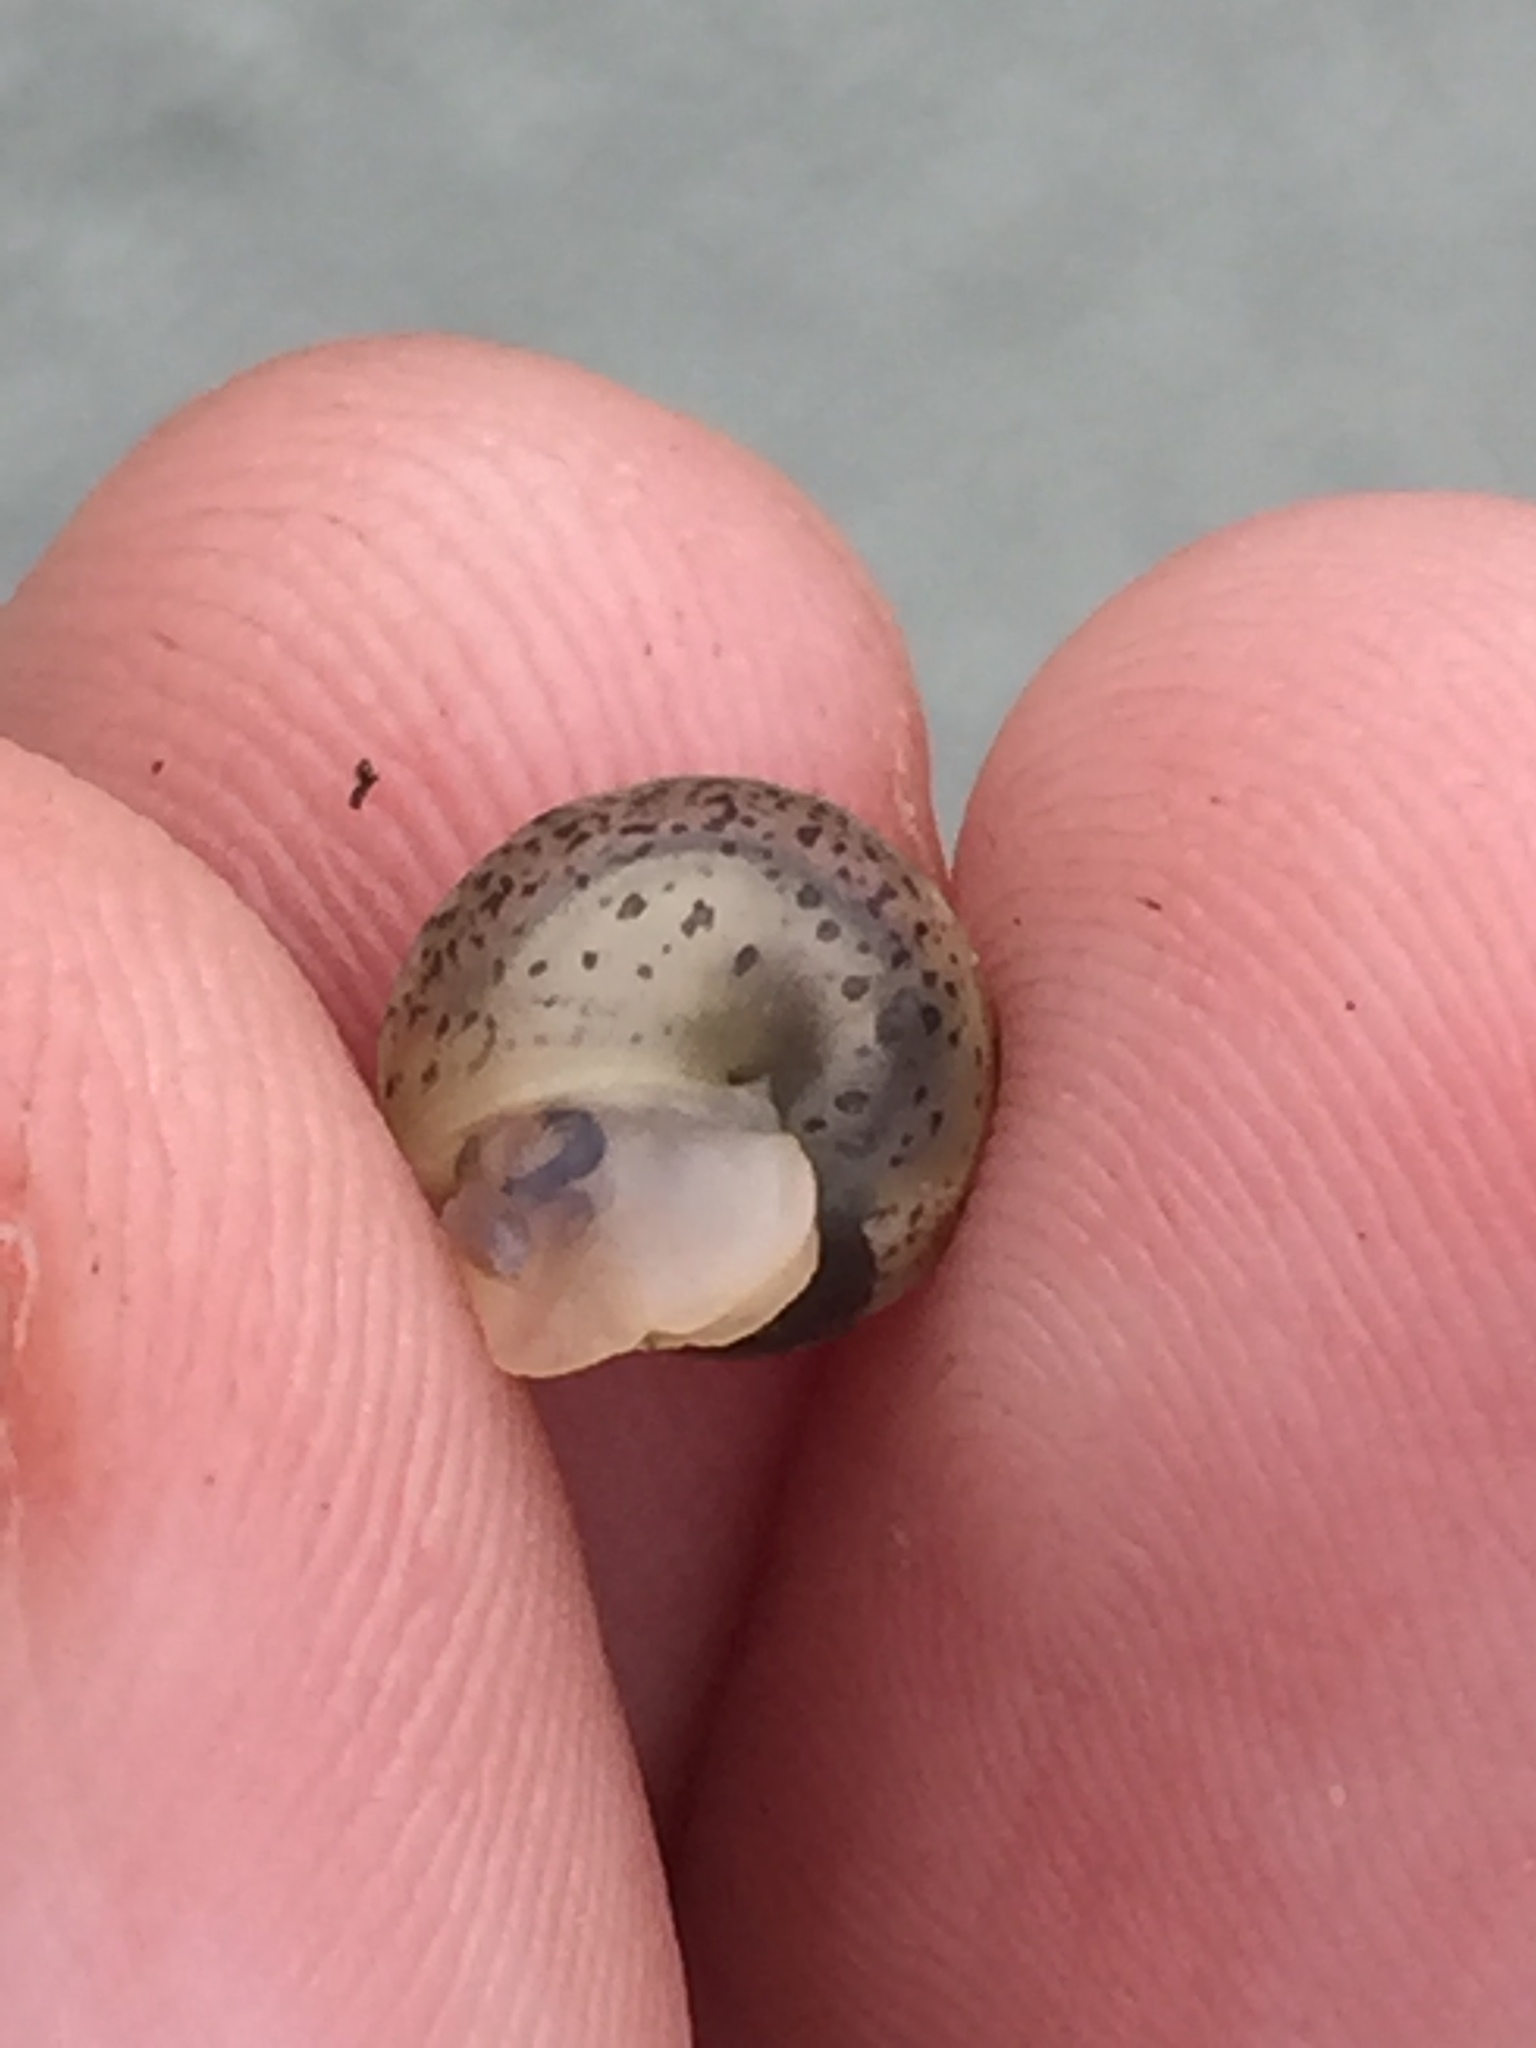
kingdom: Animalia
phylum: Mollusca
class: Gastropoda
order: Stylommatophora
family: Hygromiidae
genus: Hygromia
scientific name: Hygromia cinctella
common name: Girdled snail
